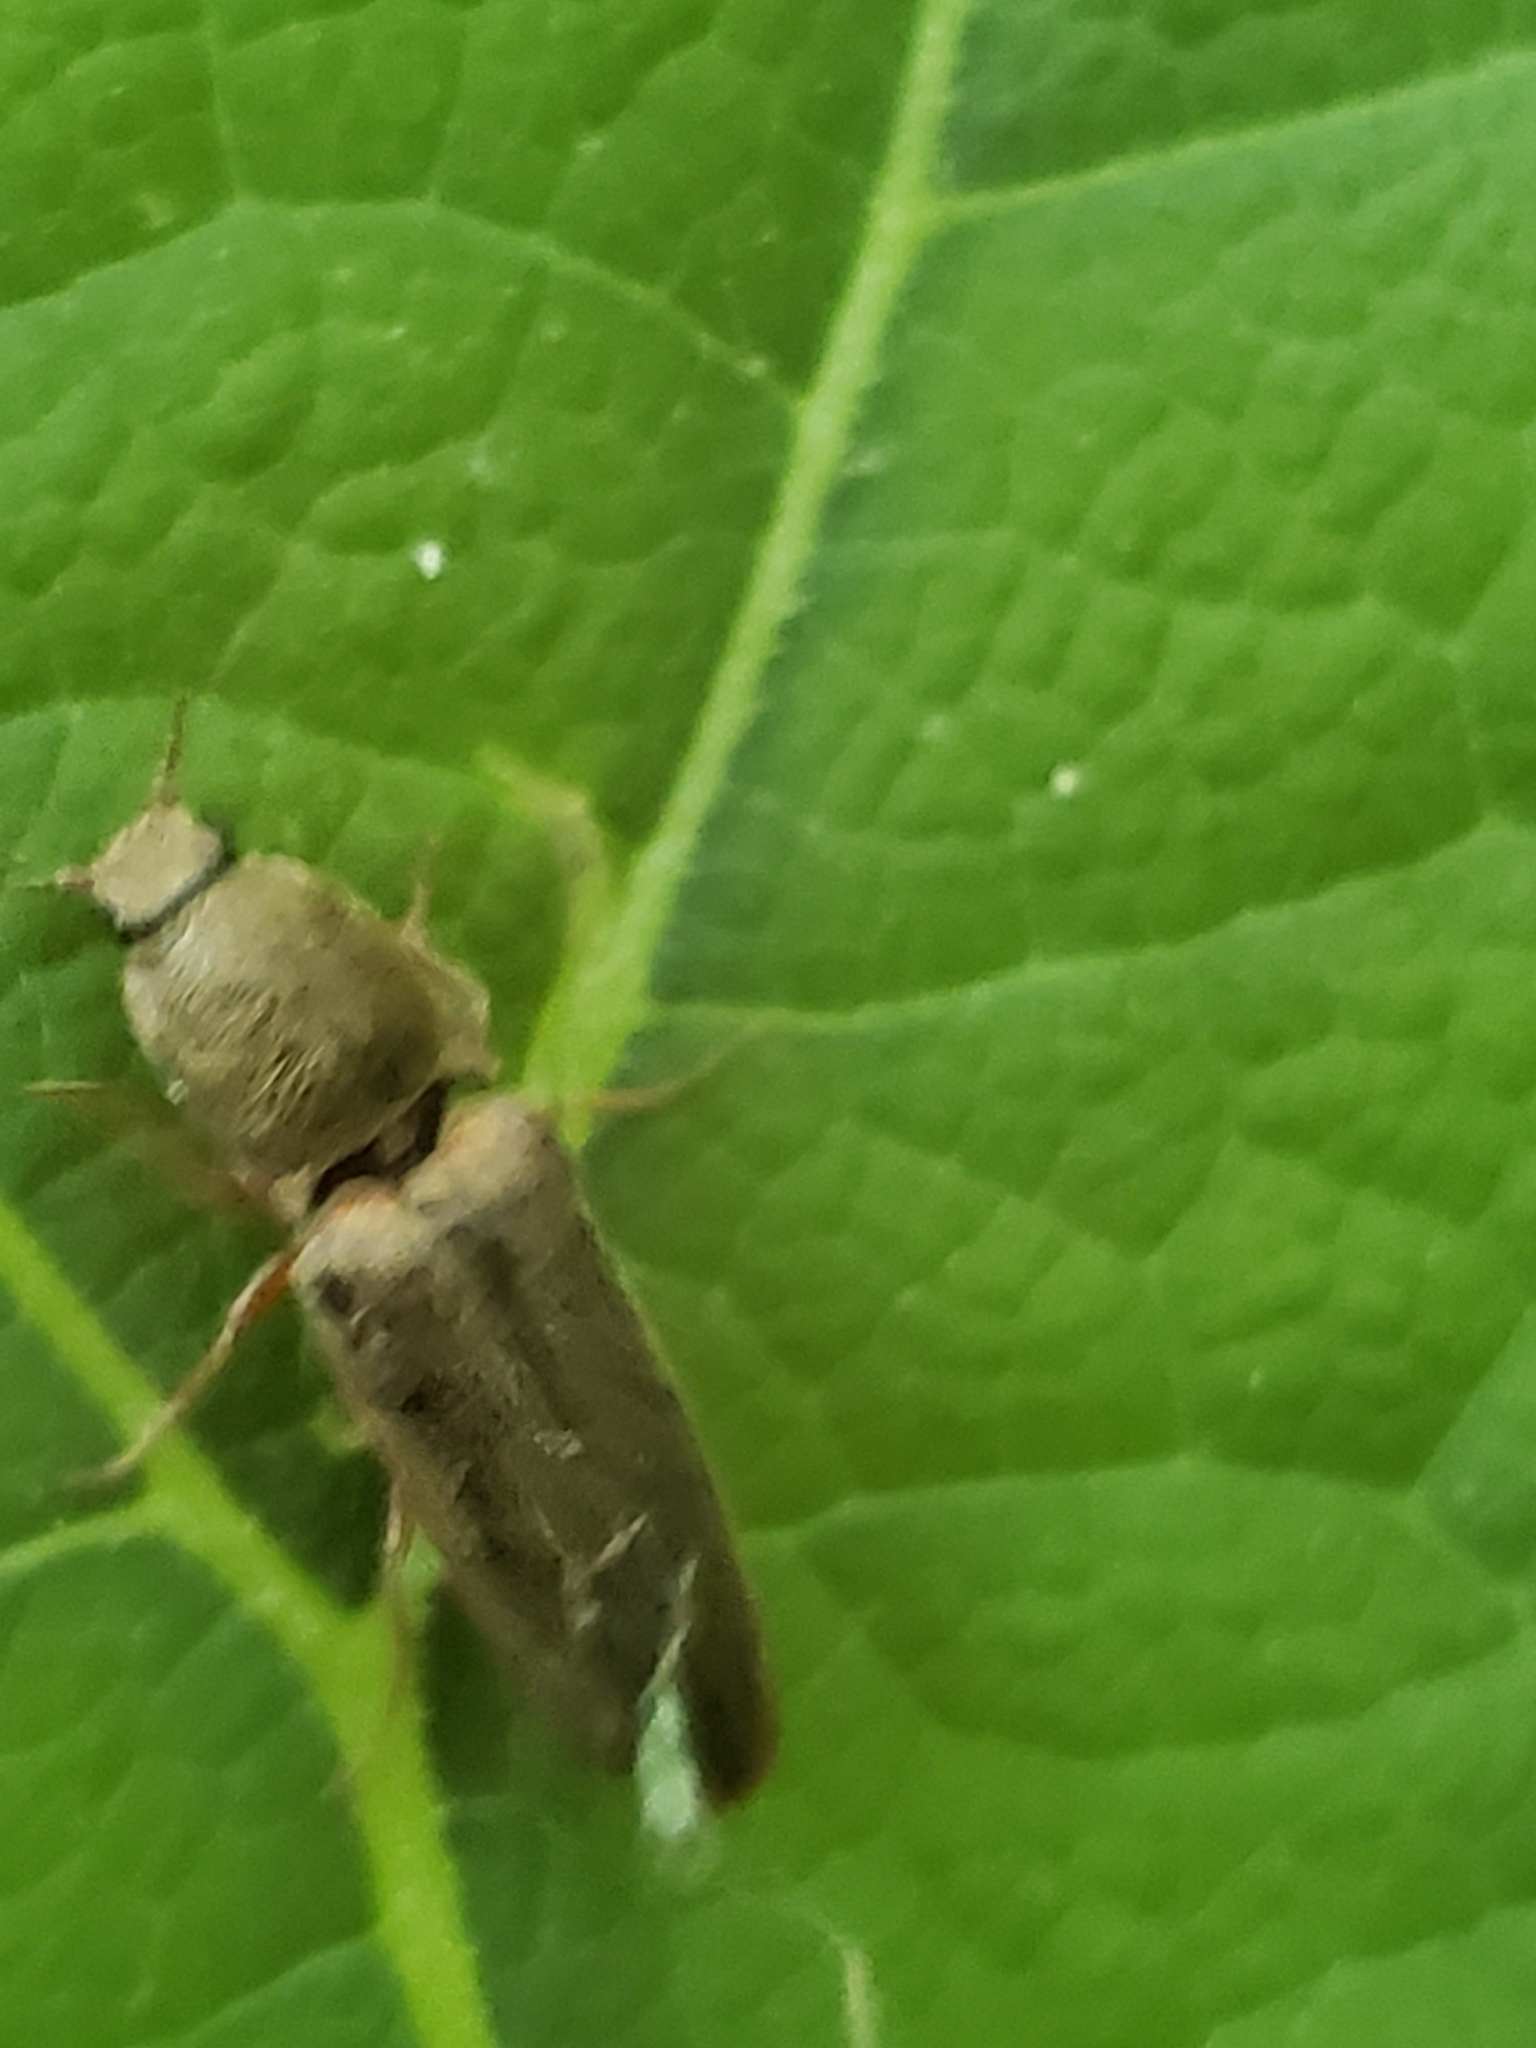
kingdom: Animalia
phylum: Arthropoda
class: Insecta
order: Coleoptera
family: Elateridae
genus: Gambrinus
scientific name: Gambrinus griseus
